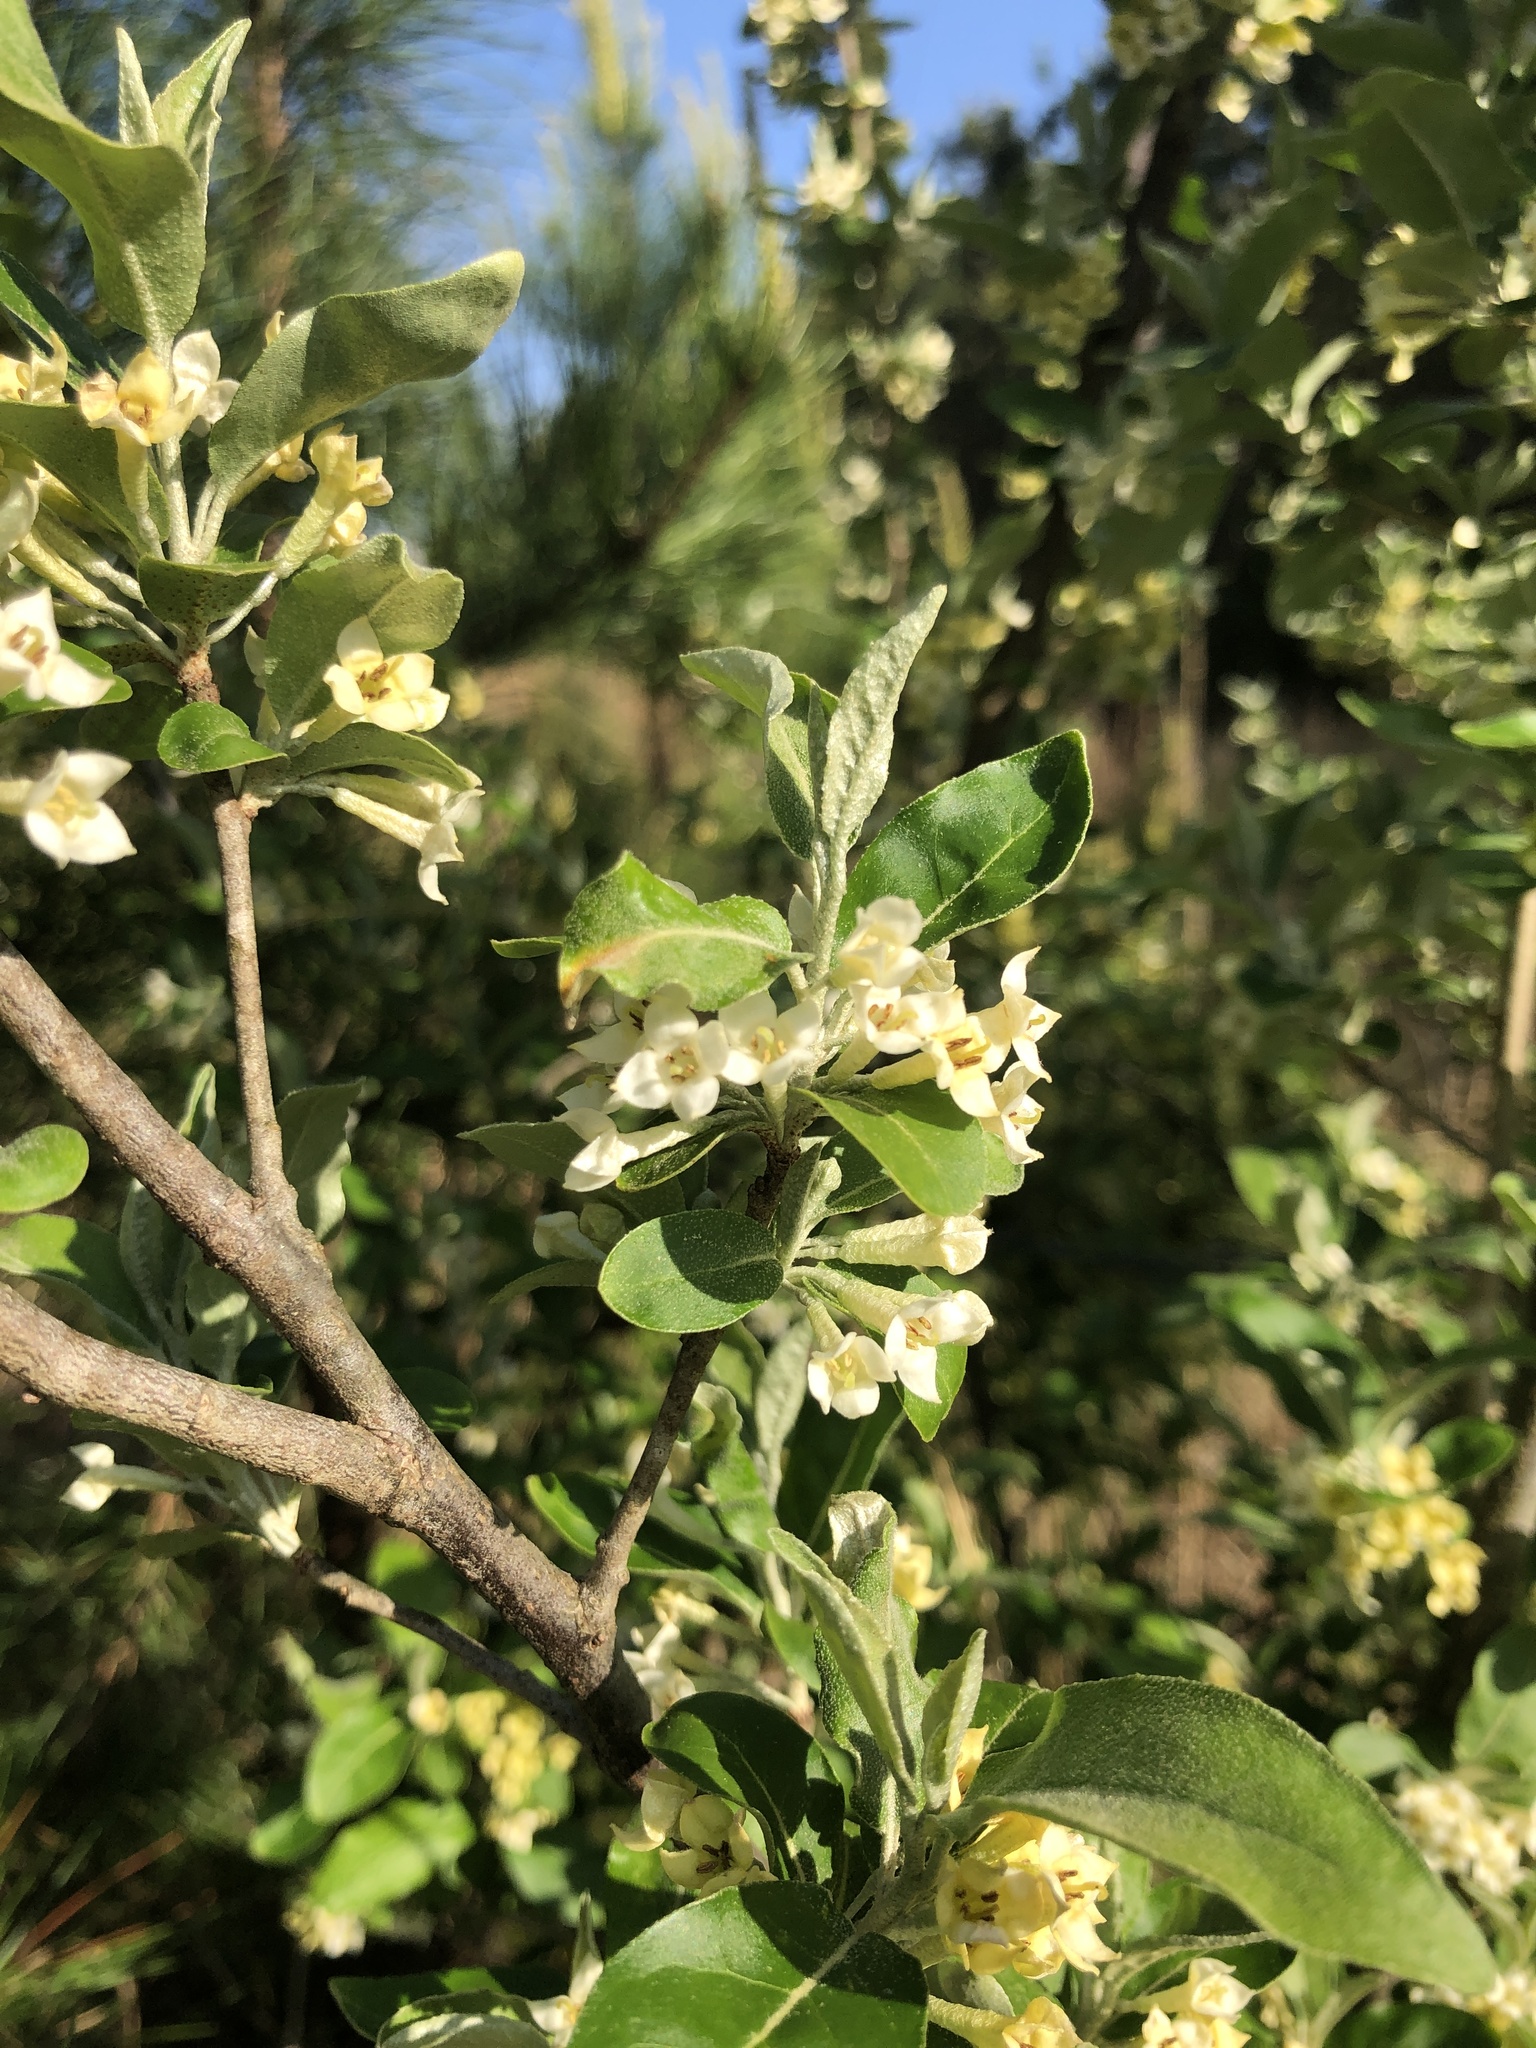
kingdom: Plantae
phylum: Tracheophyta
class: Magnoliopsida
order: Rosales
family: Elaeagnaceae
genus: Elaeagnus
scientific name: Elaeagnus umbellata
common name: Autumn olive
